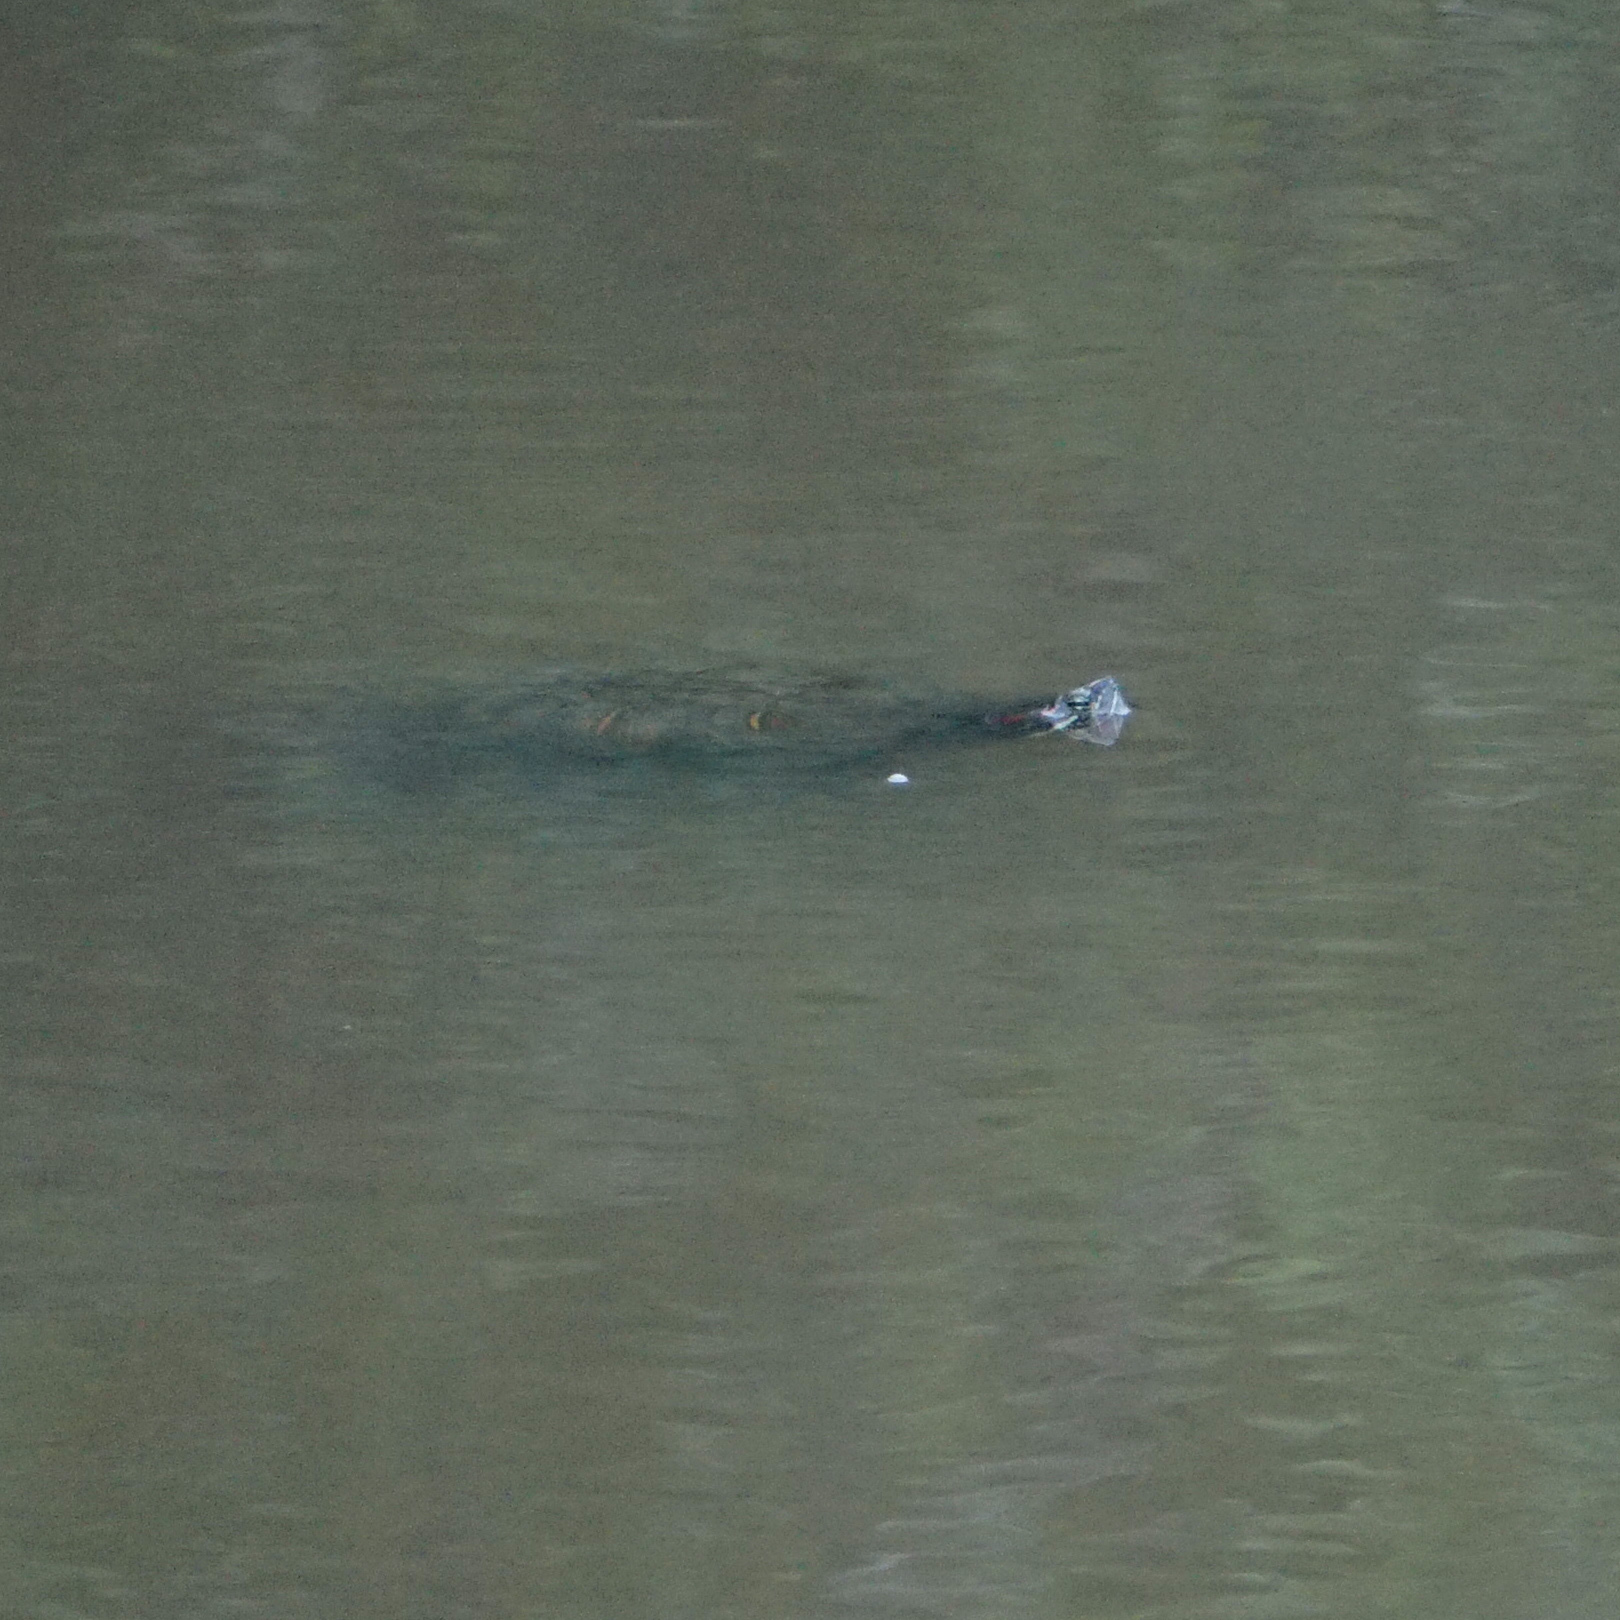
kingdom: Animalia
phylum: Chordata
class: Testudines
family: Emydidae
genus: Trachemys
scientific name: Trachemys scripta
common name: Slider
